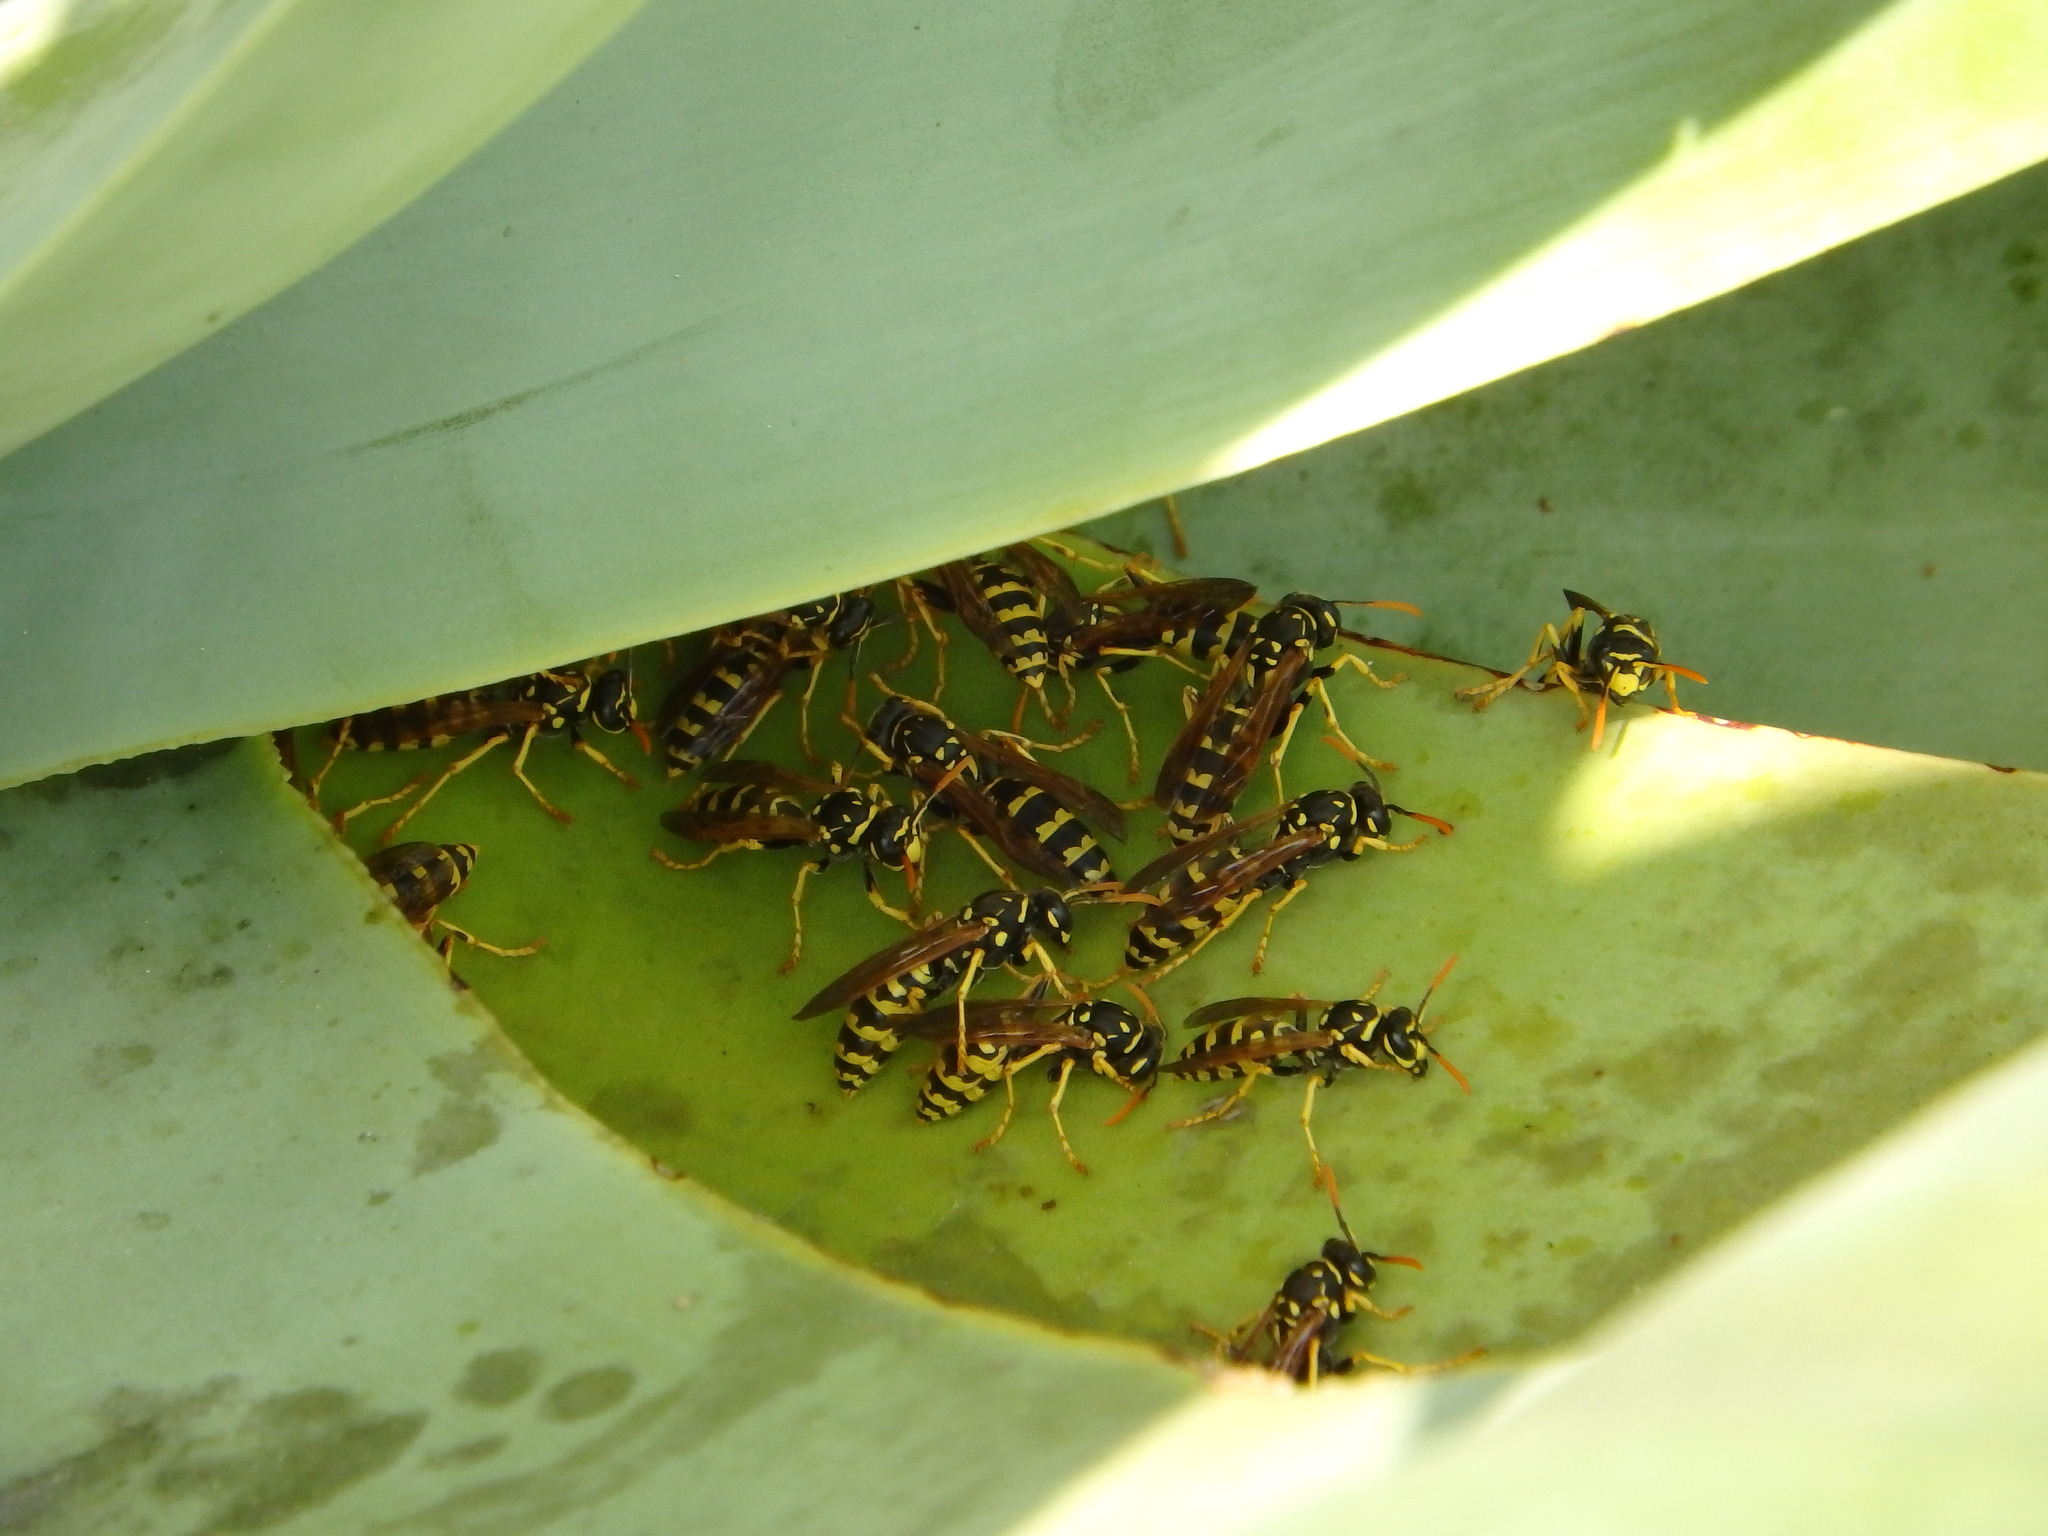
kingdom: Animalia
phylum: Arthropoda
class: Insecta
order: Hymenoptera
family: Eumenidae
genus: Polistes
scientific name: Polistes dominula
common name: Paper wasp
